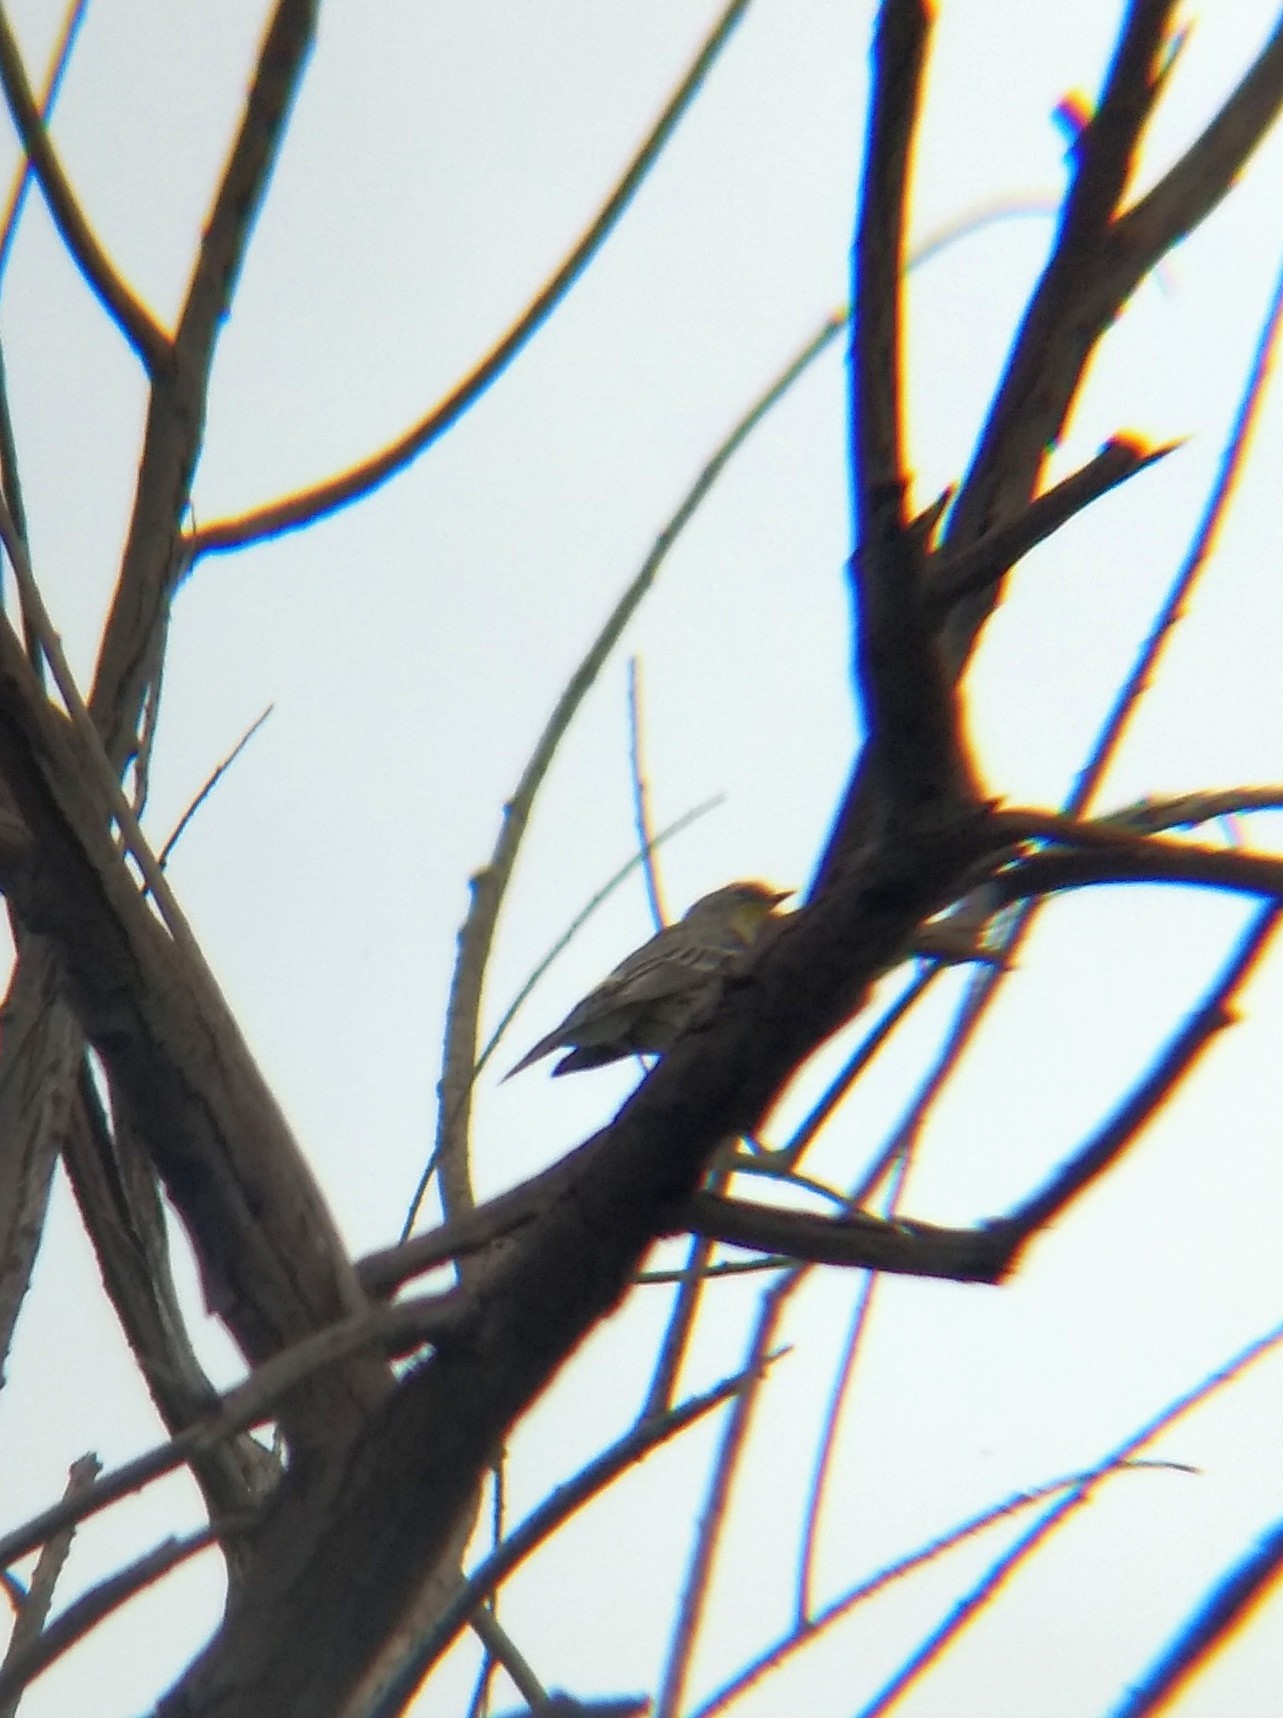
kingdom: Animalia
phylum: Chordata
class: Aves
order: Passeriformes
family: Parulidae
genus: Setophaga
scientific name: Setophaga coronata
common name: Myrtle warbler
